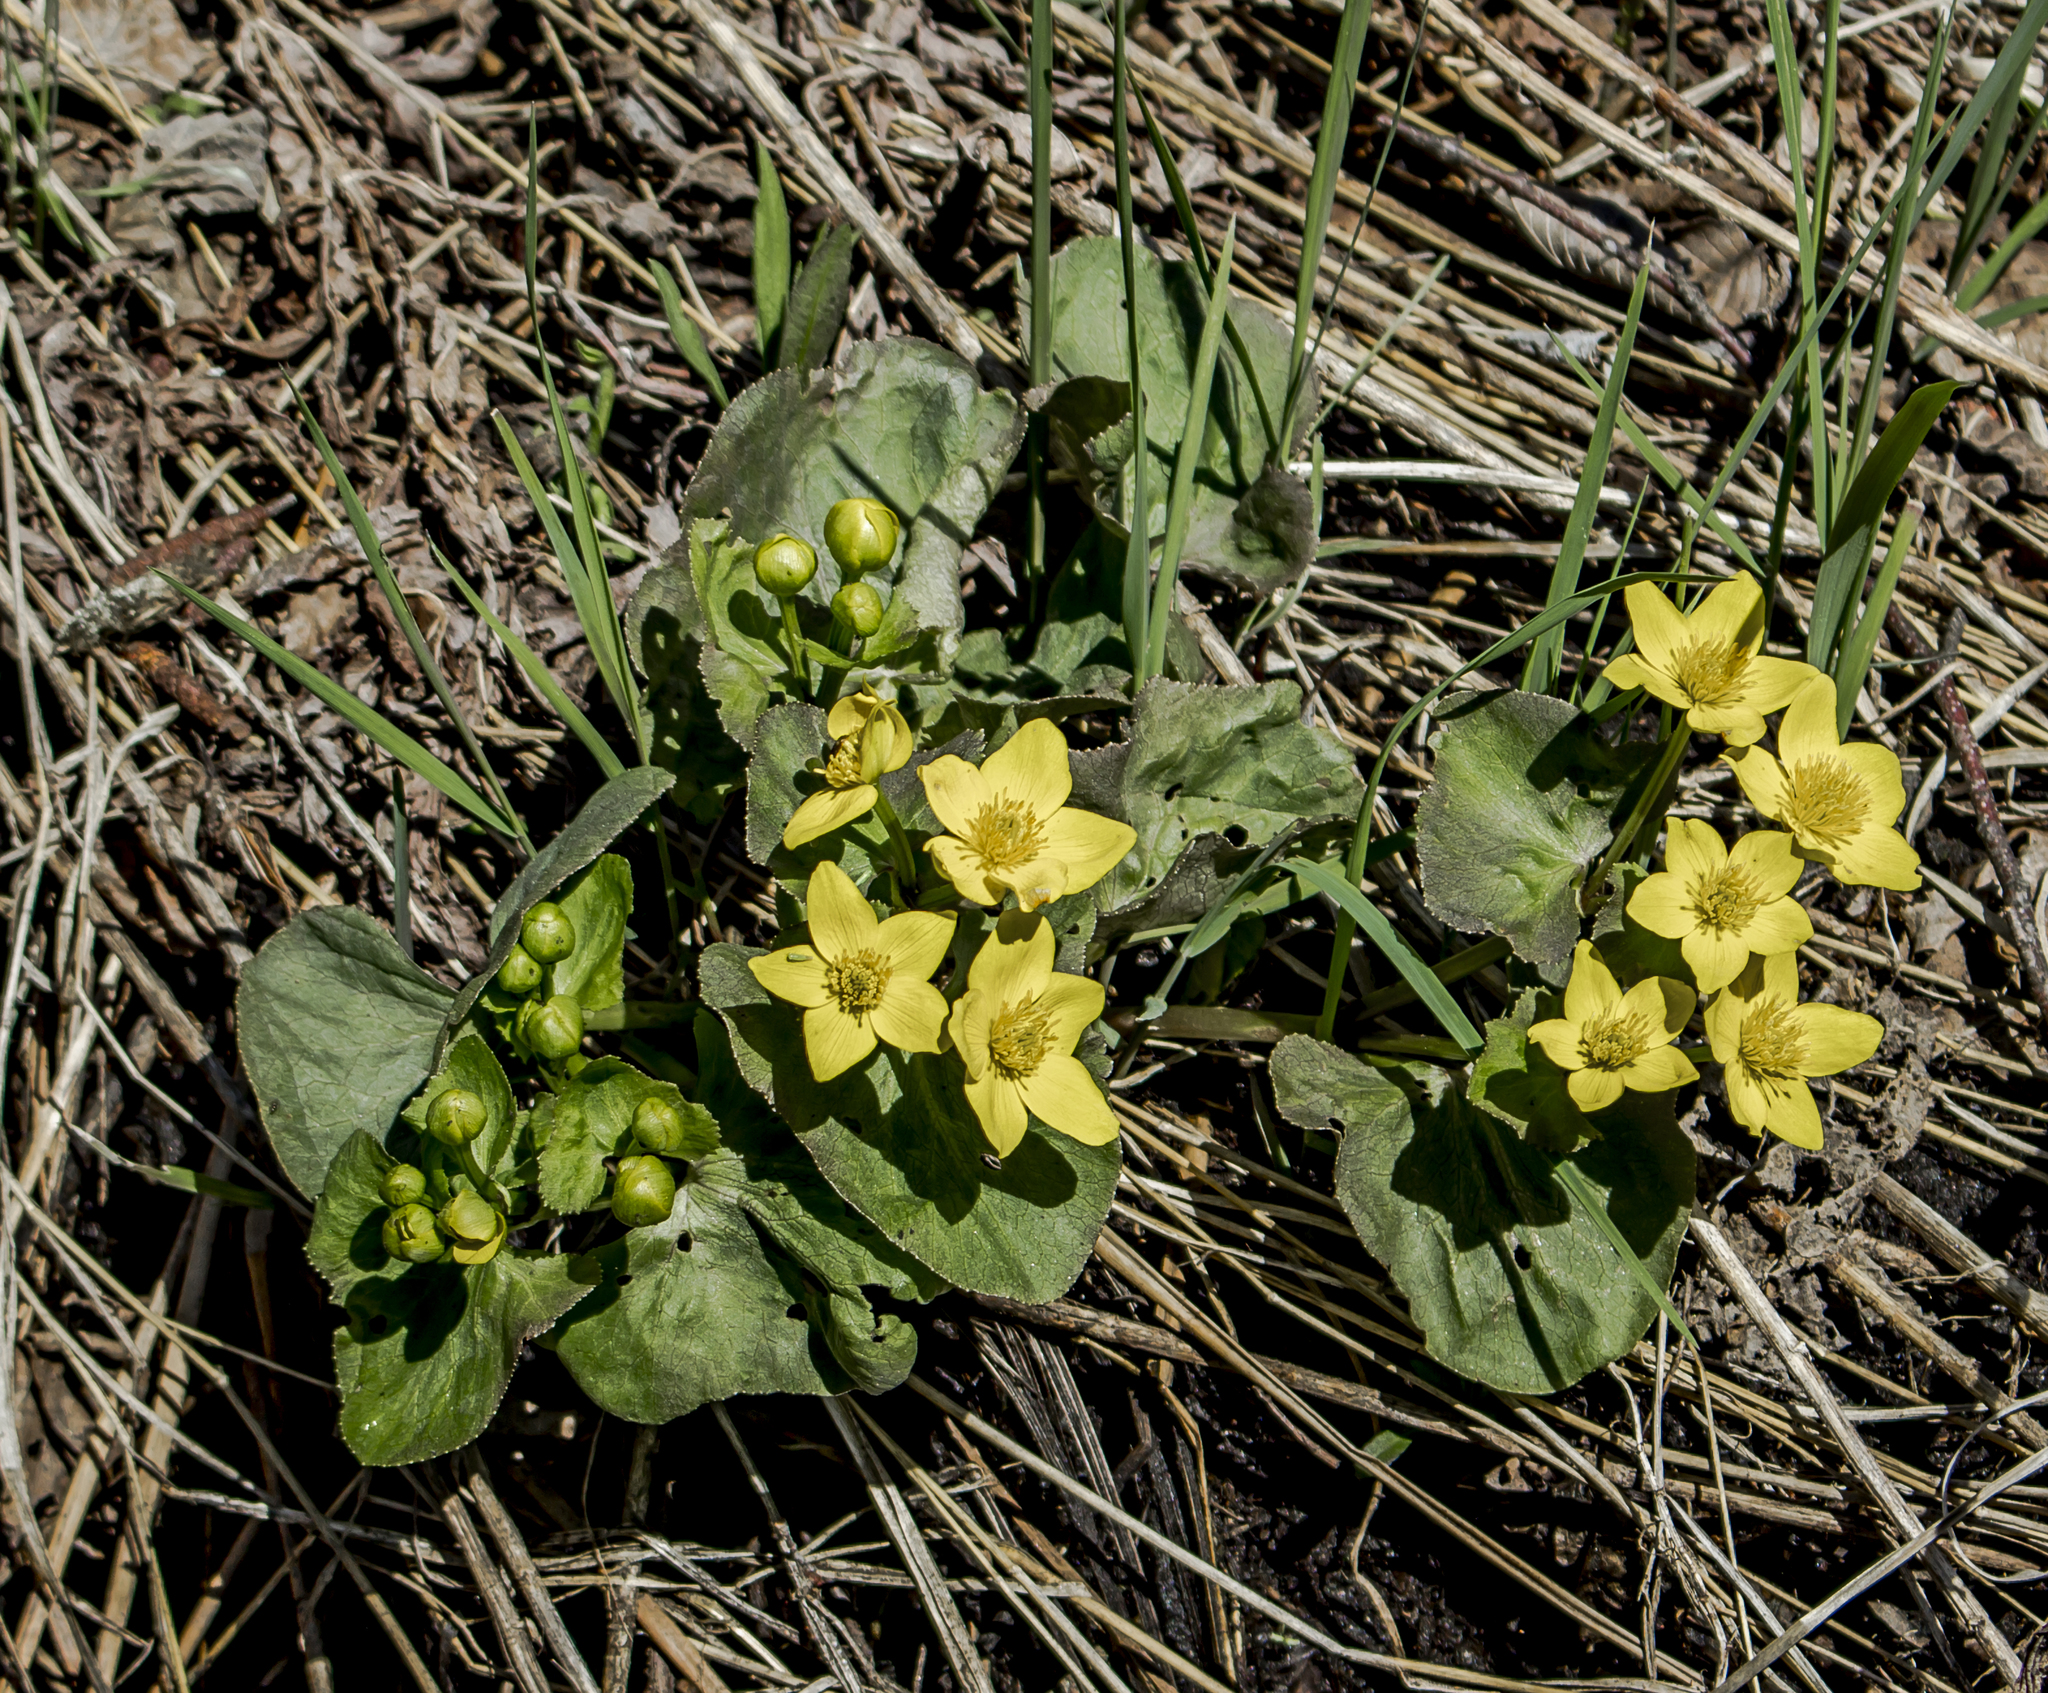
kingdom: Plantae
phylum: Tracheophyta
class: Magnoliopsida
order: Ranunculales
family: Ranunculaceae
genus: Caltha
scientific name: Caltha palustris
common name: Marsh marigold
